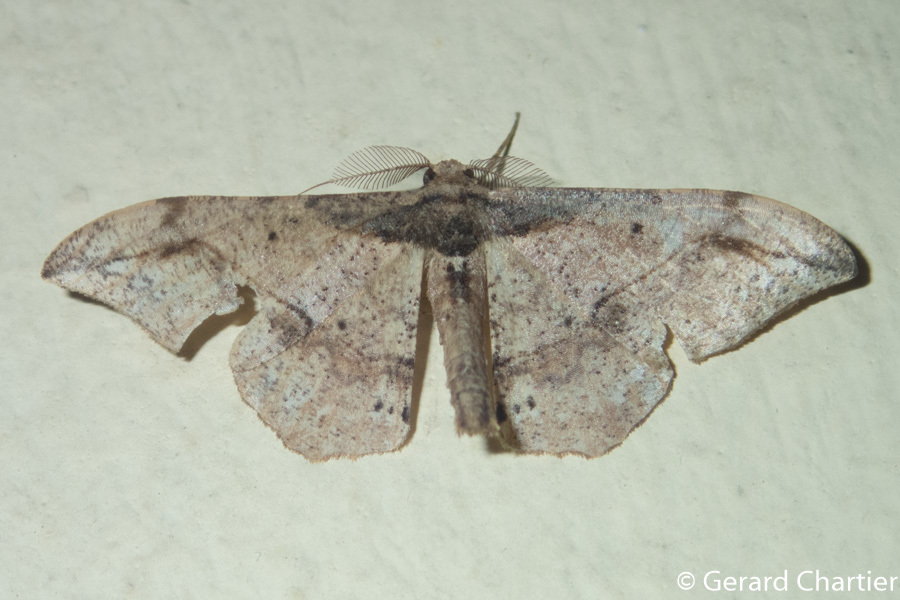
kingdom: Animalia
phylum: Arthropoda
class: Insecta
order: Lepidoptera
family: Geometridae
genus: Hyposidra
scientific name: Hyposidra infixaria
